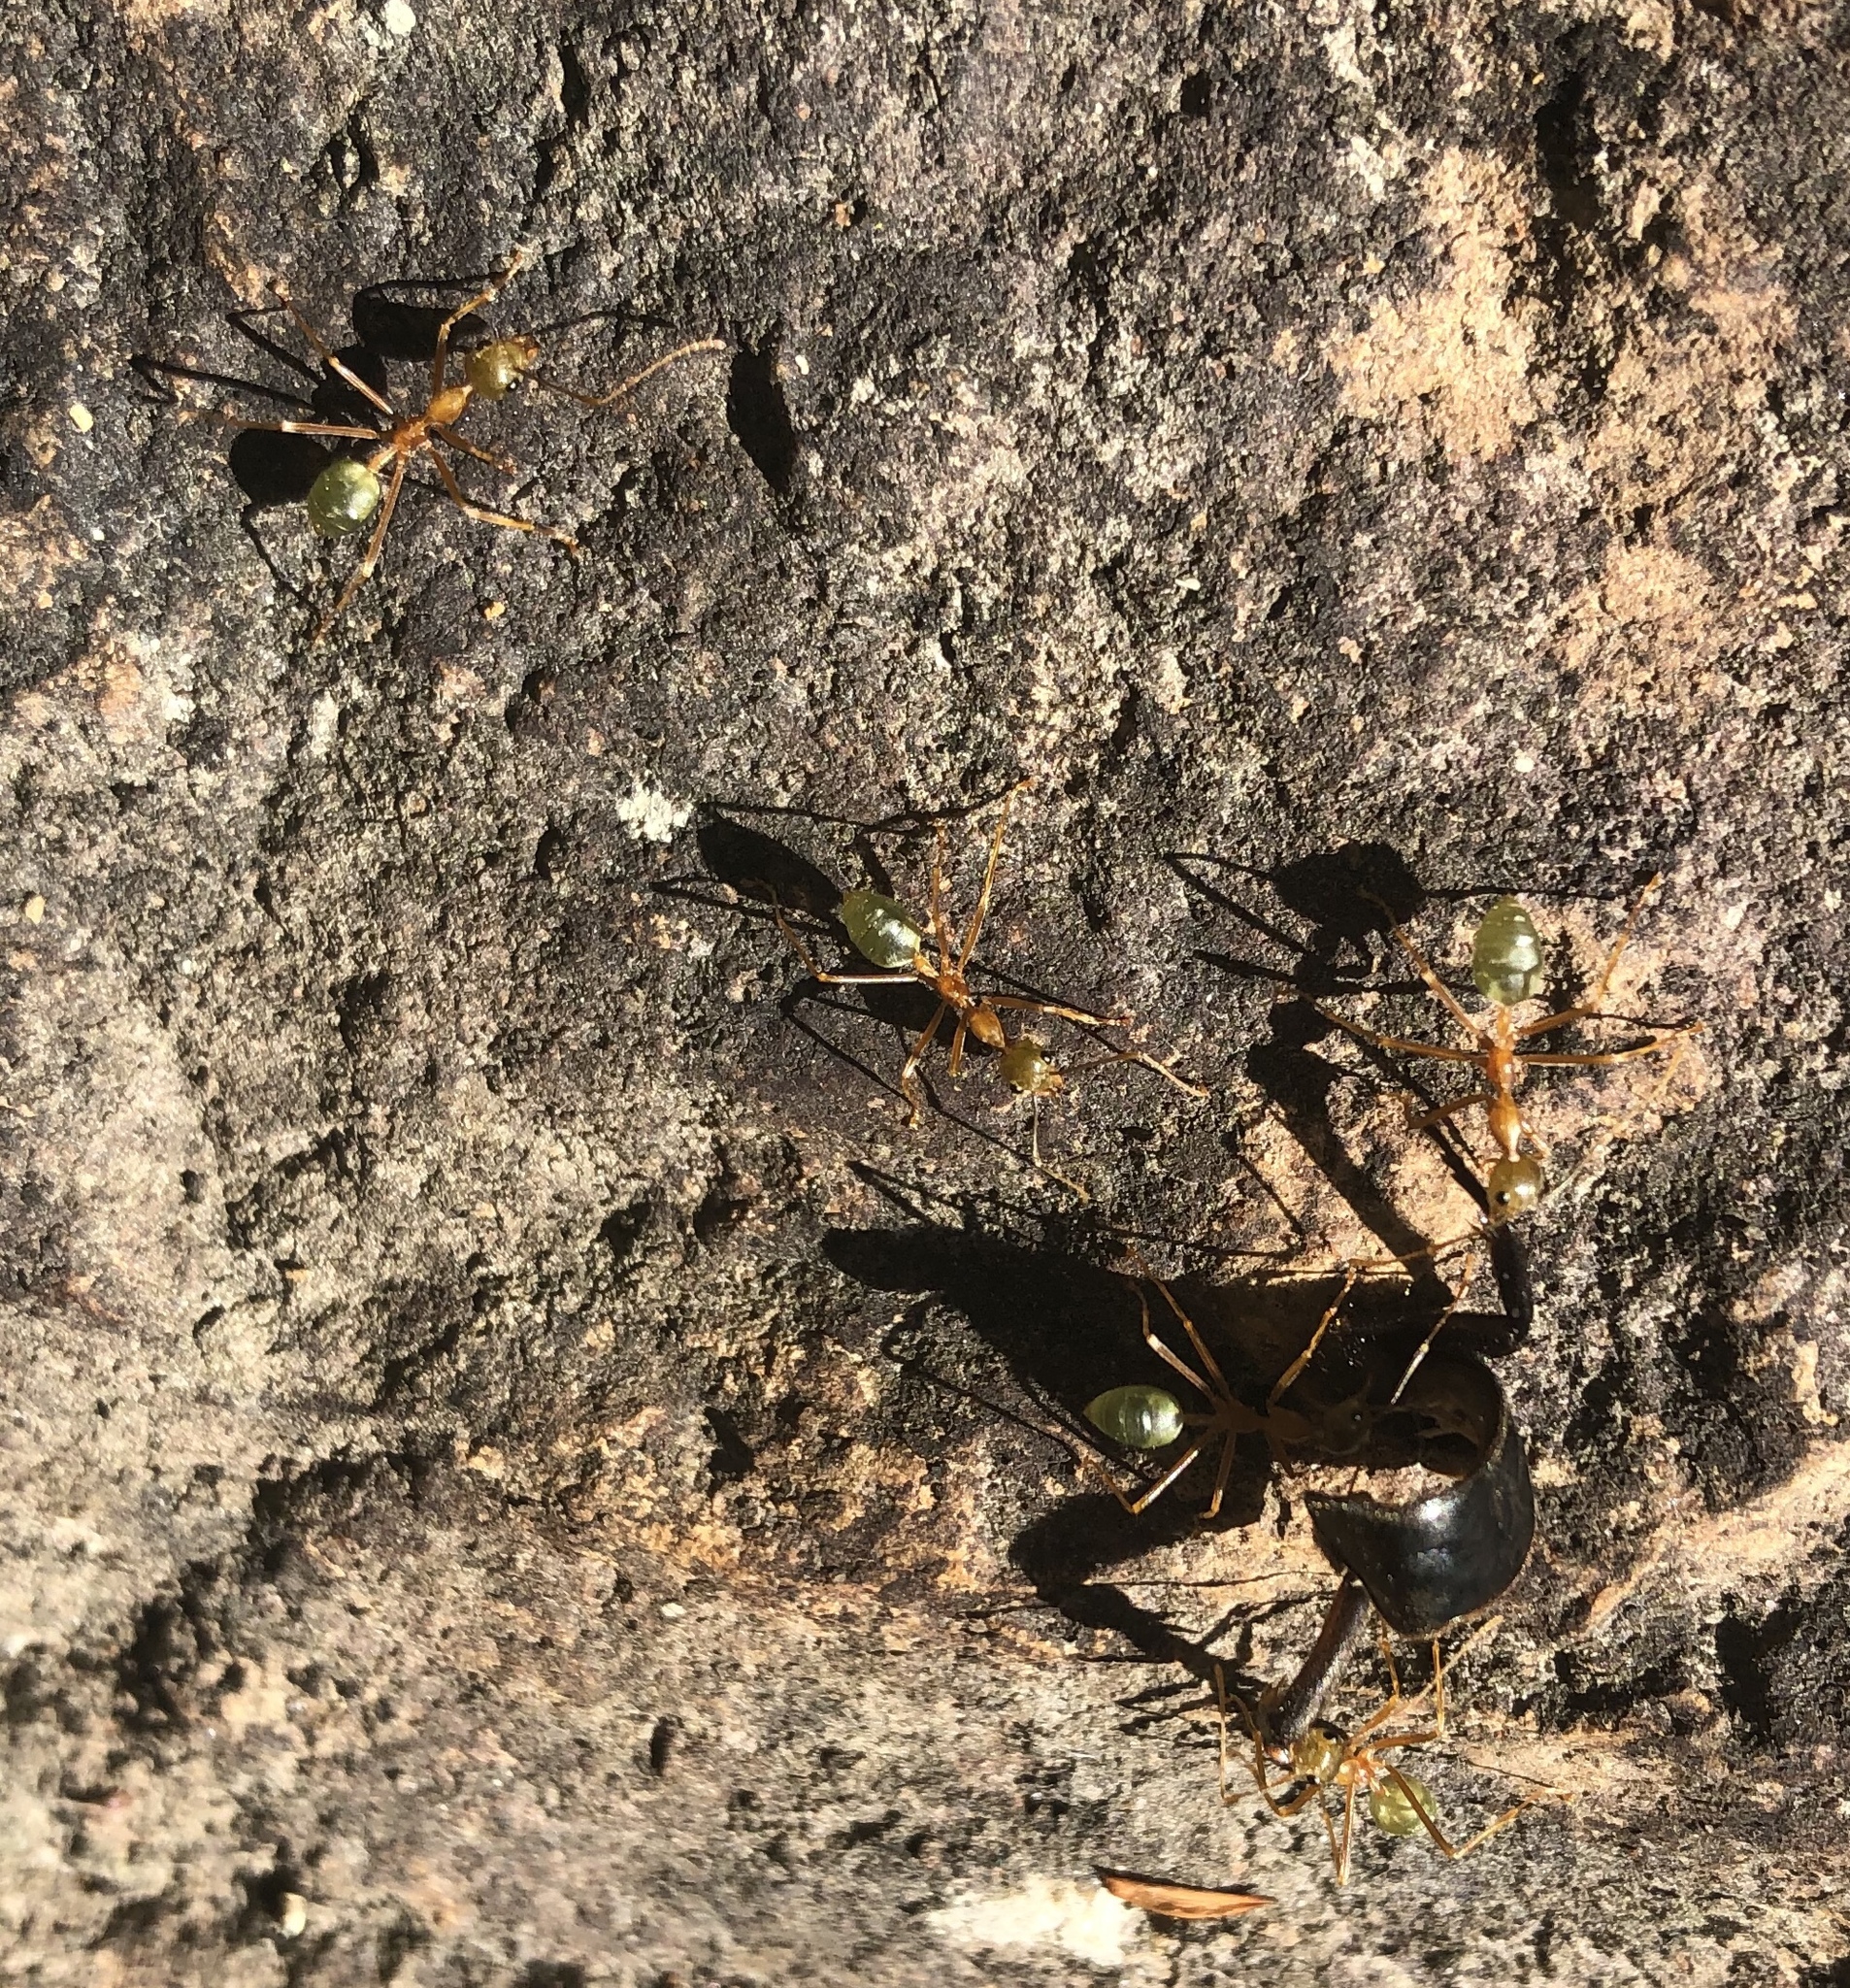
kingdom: Animalia
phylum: Arthropoda
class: Insecta
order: Hymenoptera
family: Formicidae
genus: Oecophylla
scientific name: Oecophylla smaragdina
